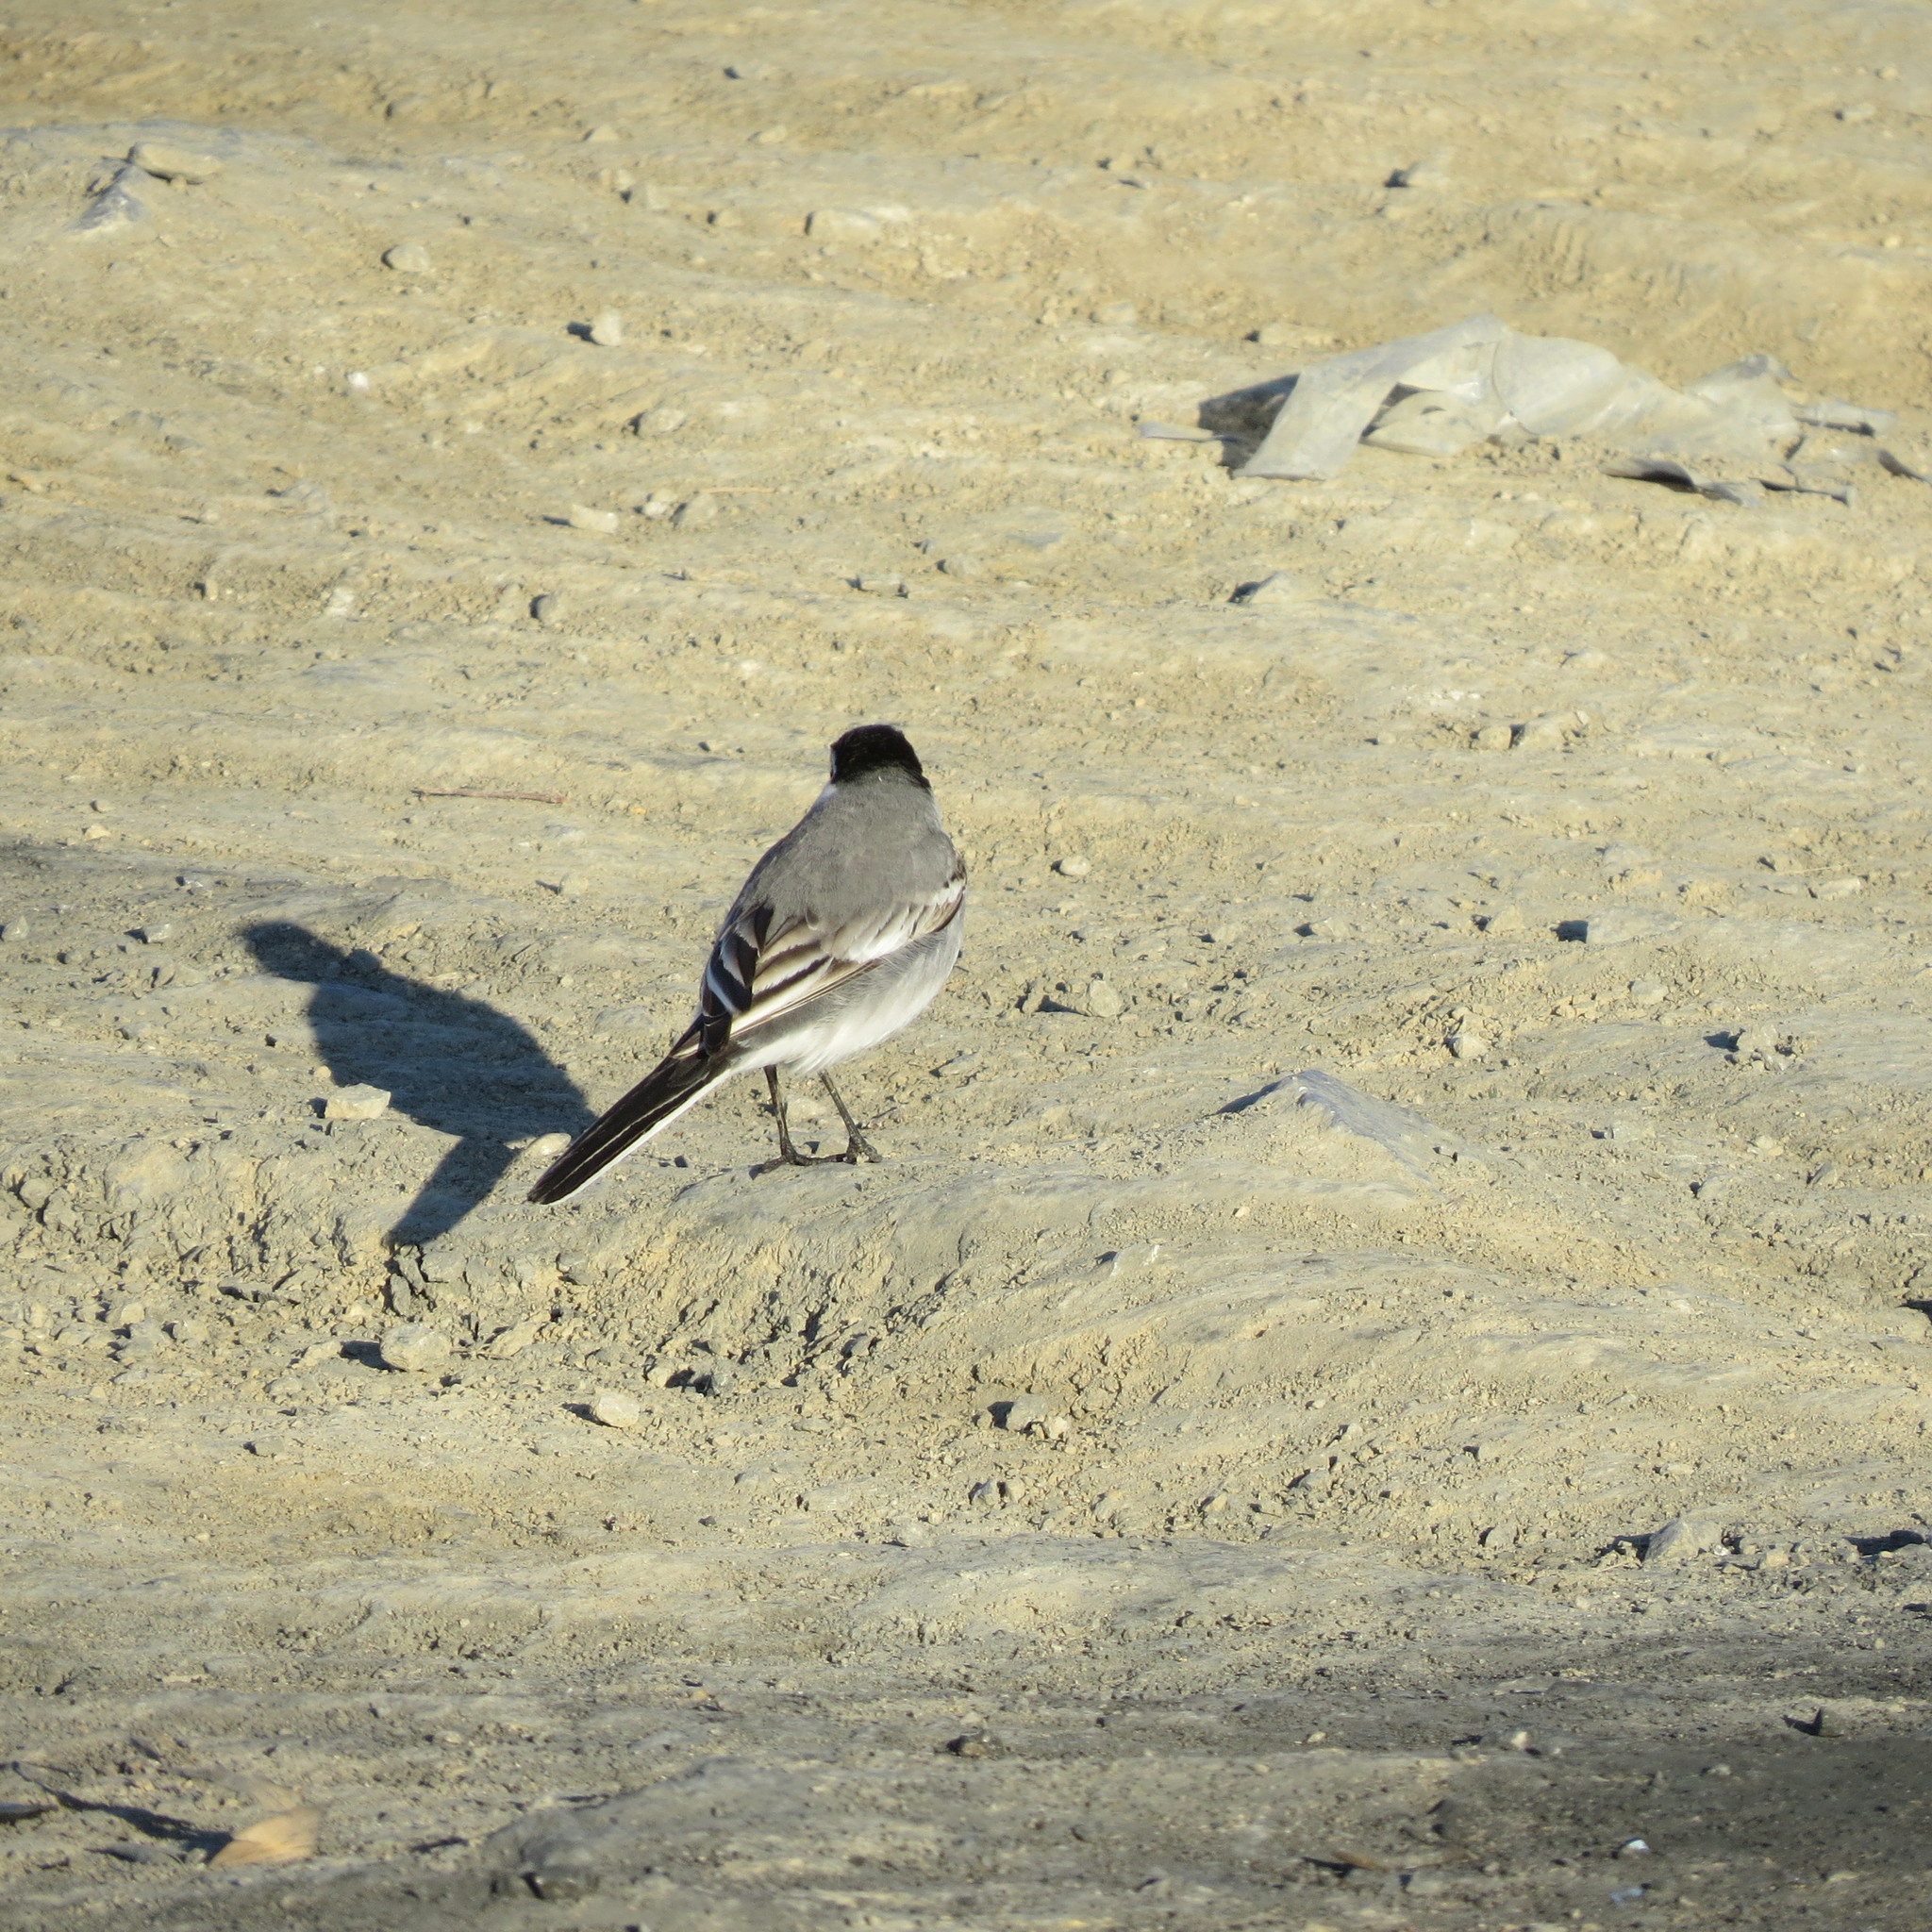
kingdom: Animalia
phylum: Chordata
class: Aves
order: Passeriformes
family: Motacillidae
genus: Motacilla
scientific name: Motacilla alba
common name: White wagtail
